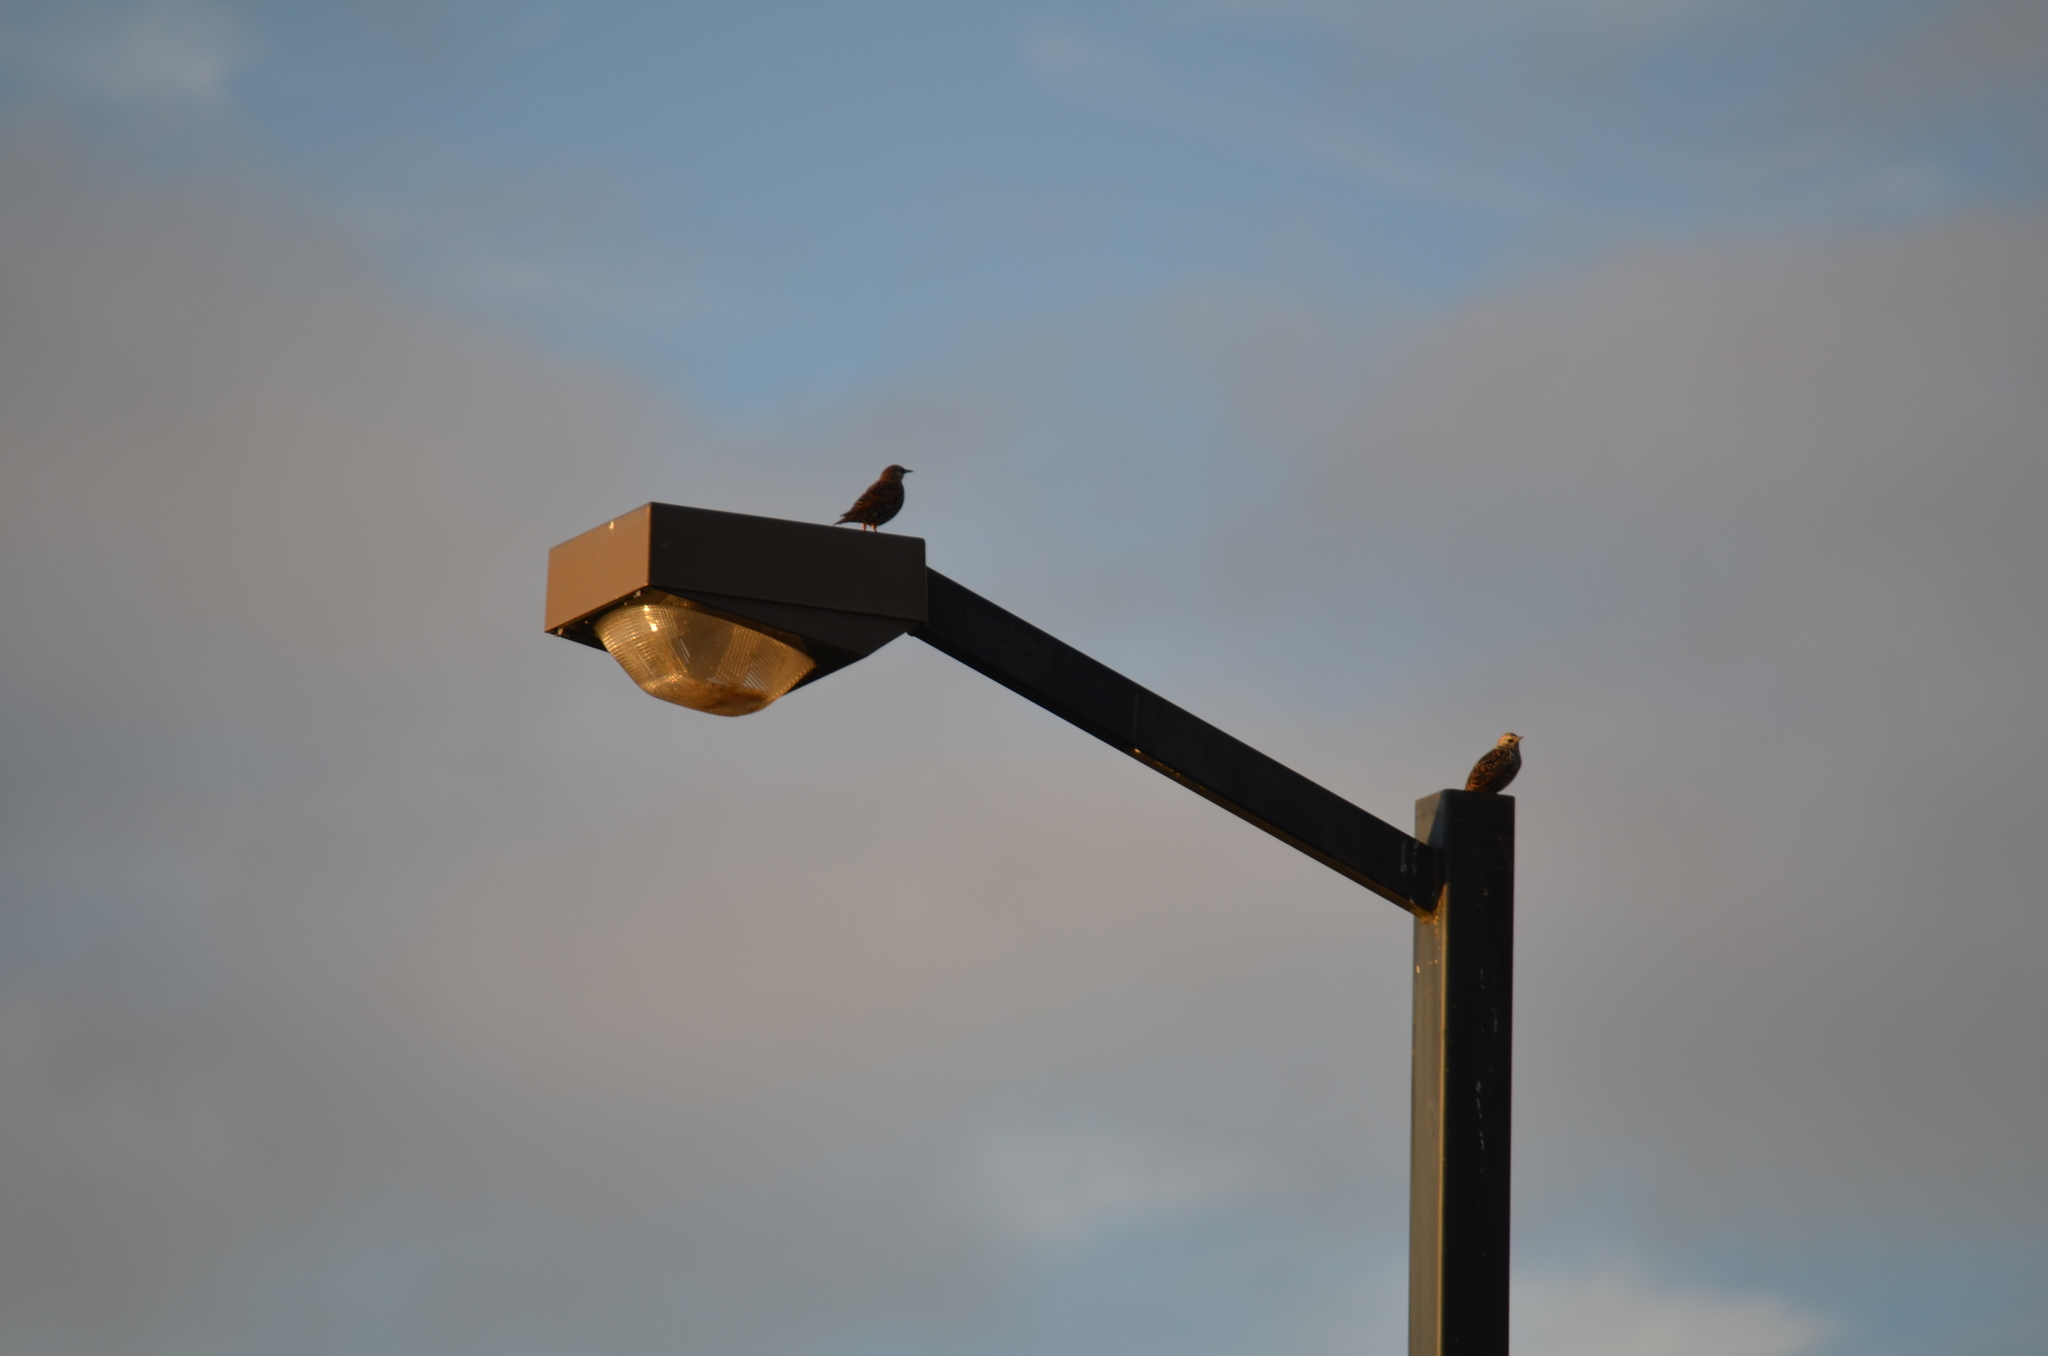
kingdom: Animalia
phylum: Chordata
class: Aves
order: Passeriformes
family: Sturnidae
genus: Sturnus
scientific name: Sturnus vulgaris
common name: Common starling
